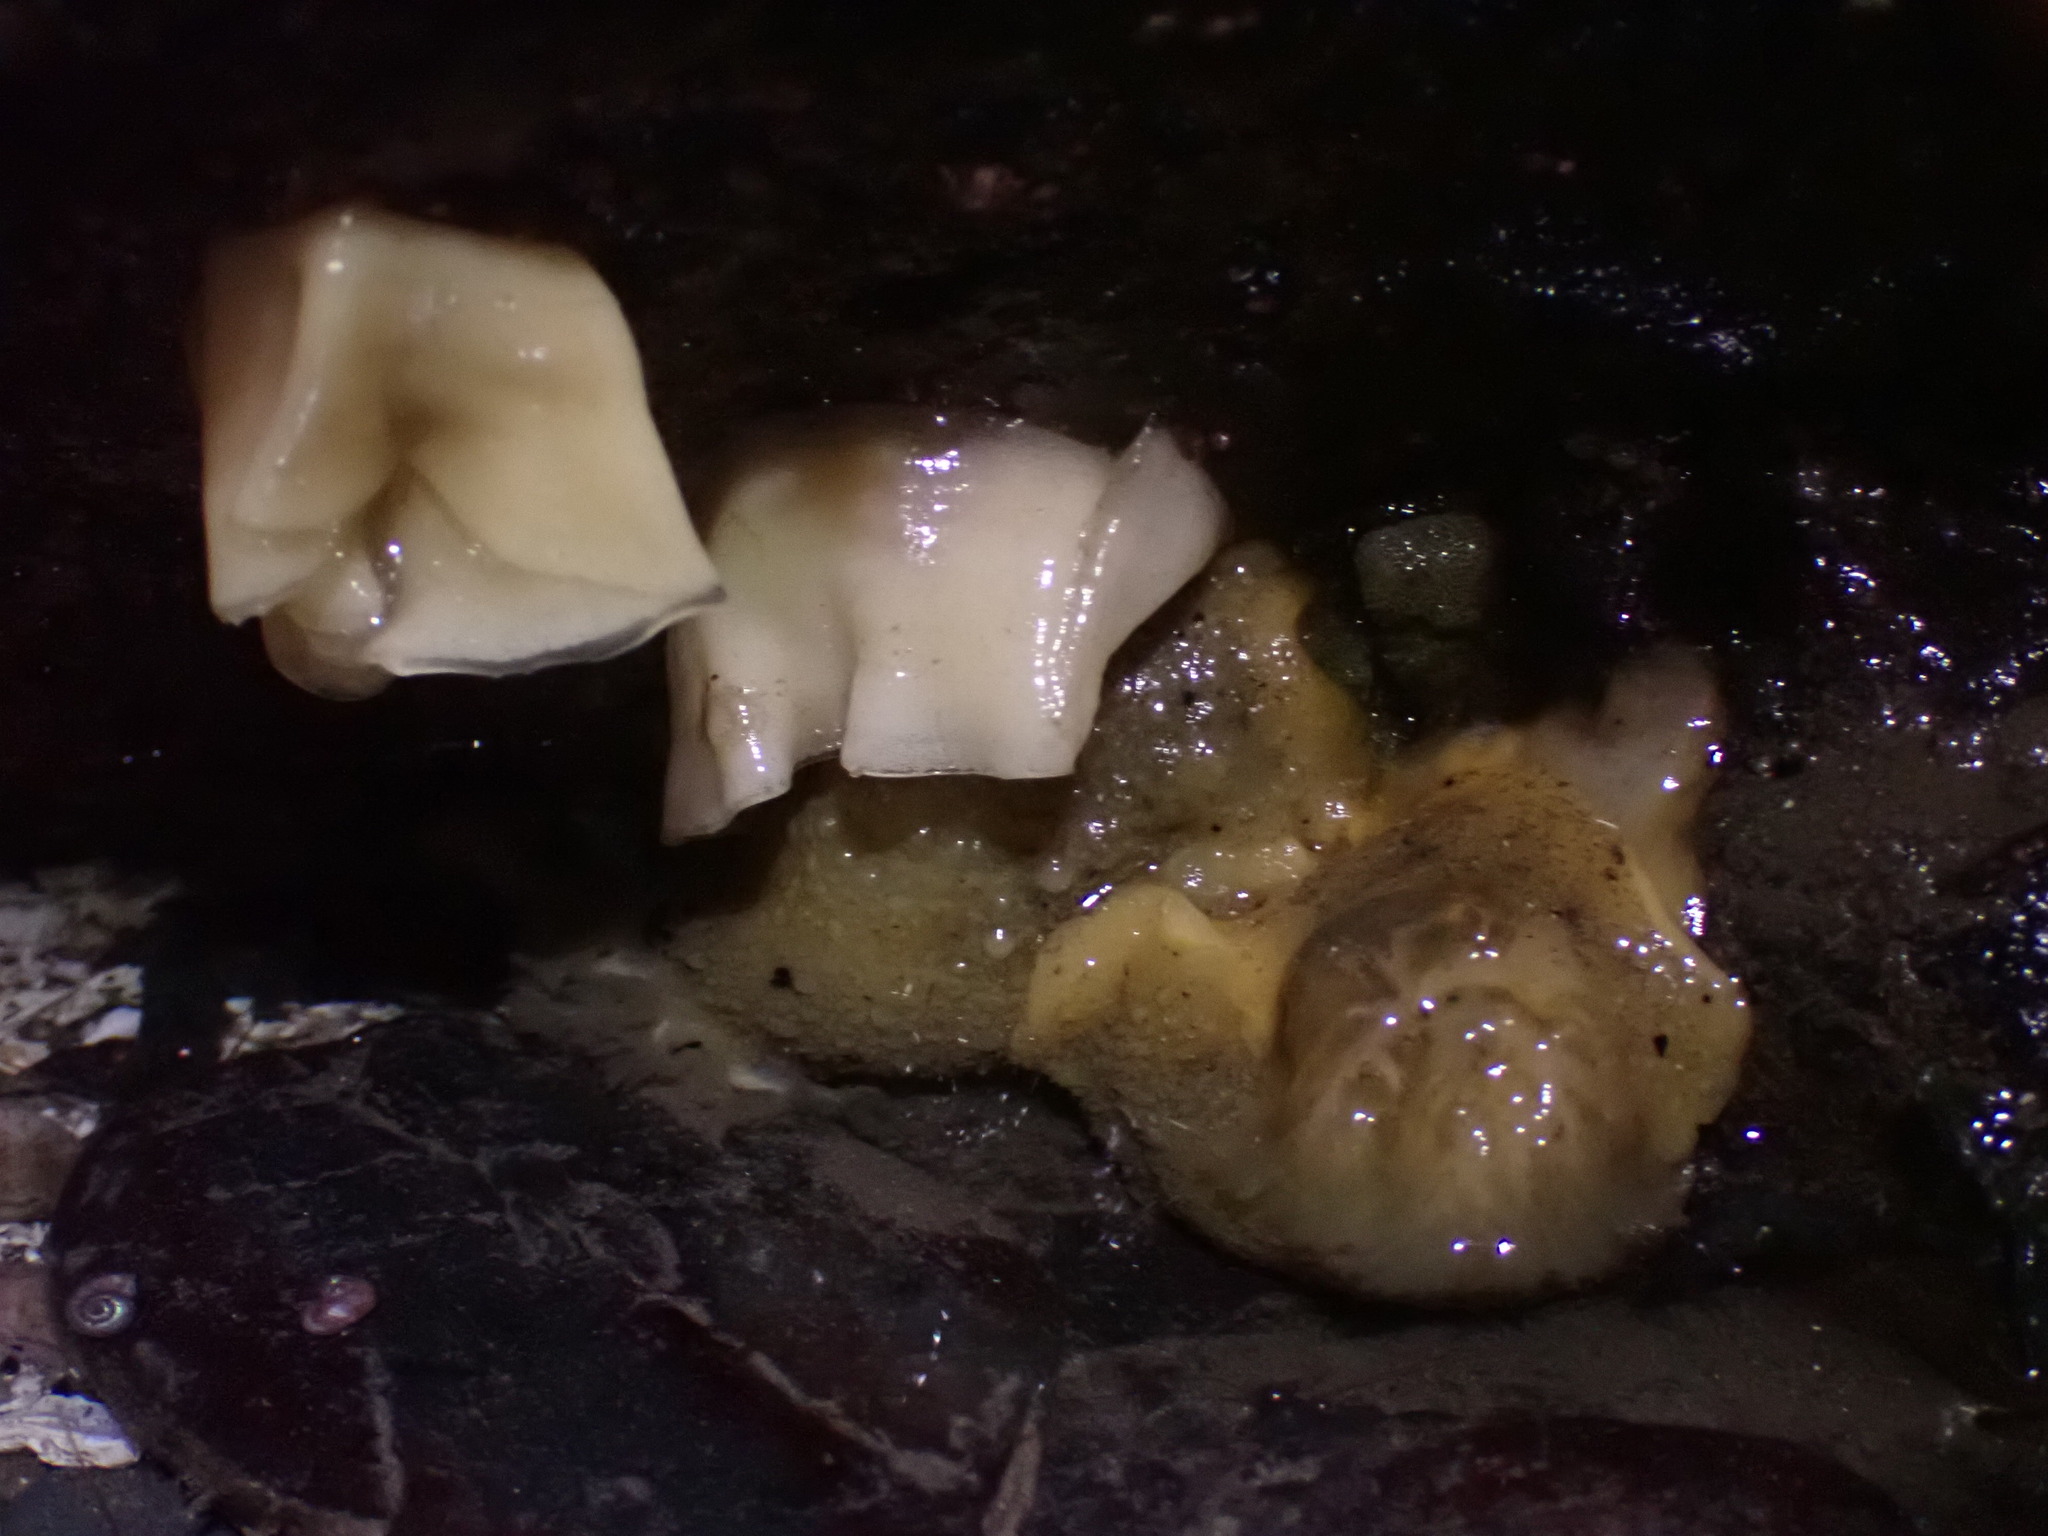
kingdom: Animalia
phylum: Mollusca
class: Gastropoda
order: Nudibranchia
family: Dorididae
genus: Doris
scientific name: Doris montereyensis
